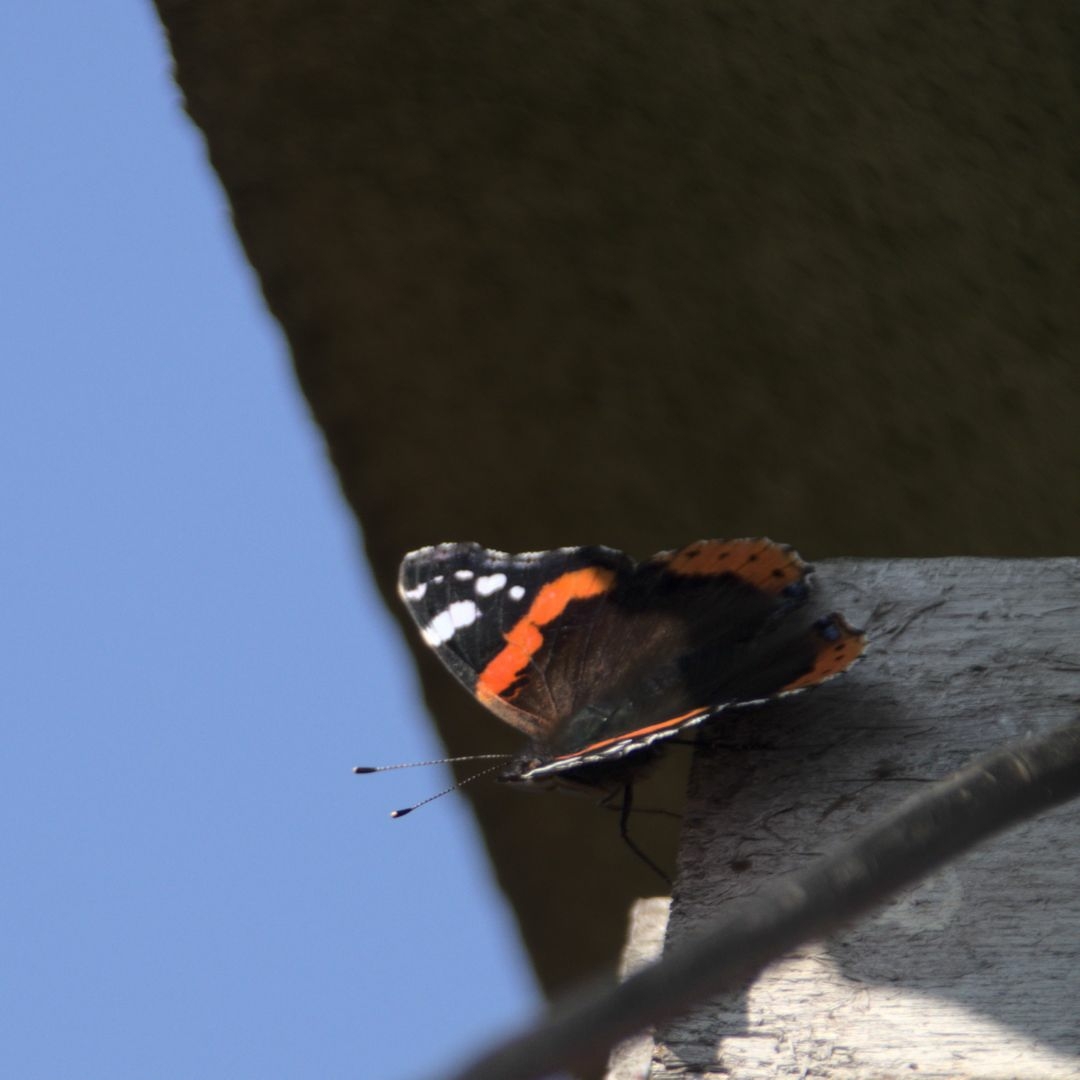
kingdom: Animalia
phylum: Arthropoda
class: Insecta
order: Lepidoptera
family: Nymphalidae
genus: Vanessa
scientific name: Vanessa atalanta
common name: Red admiral
